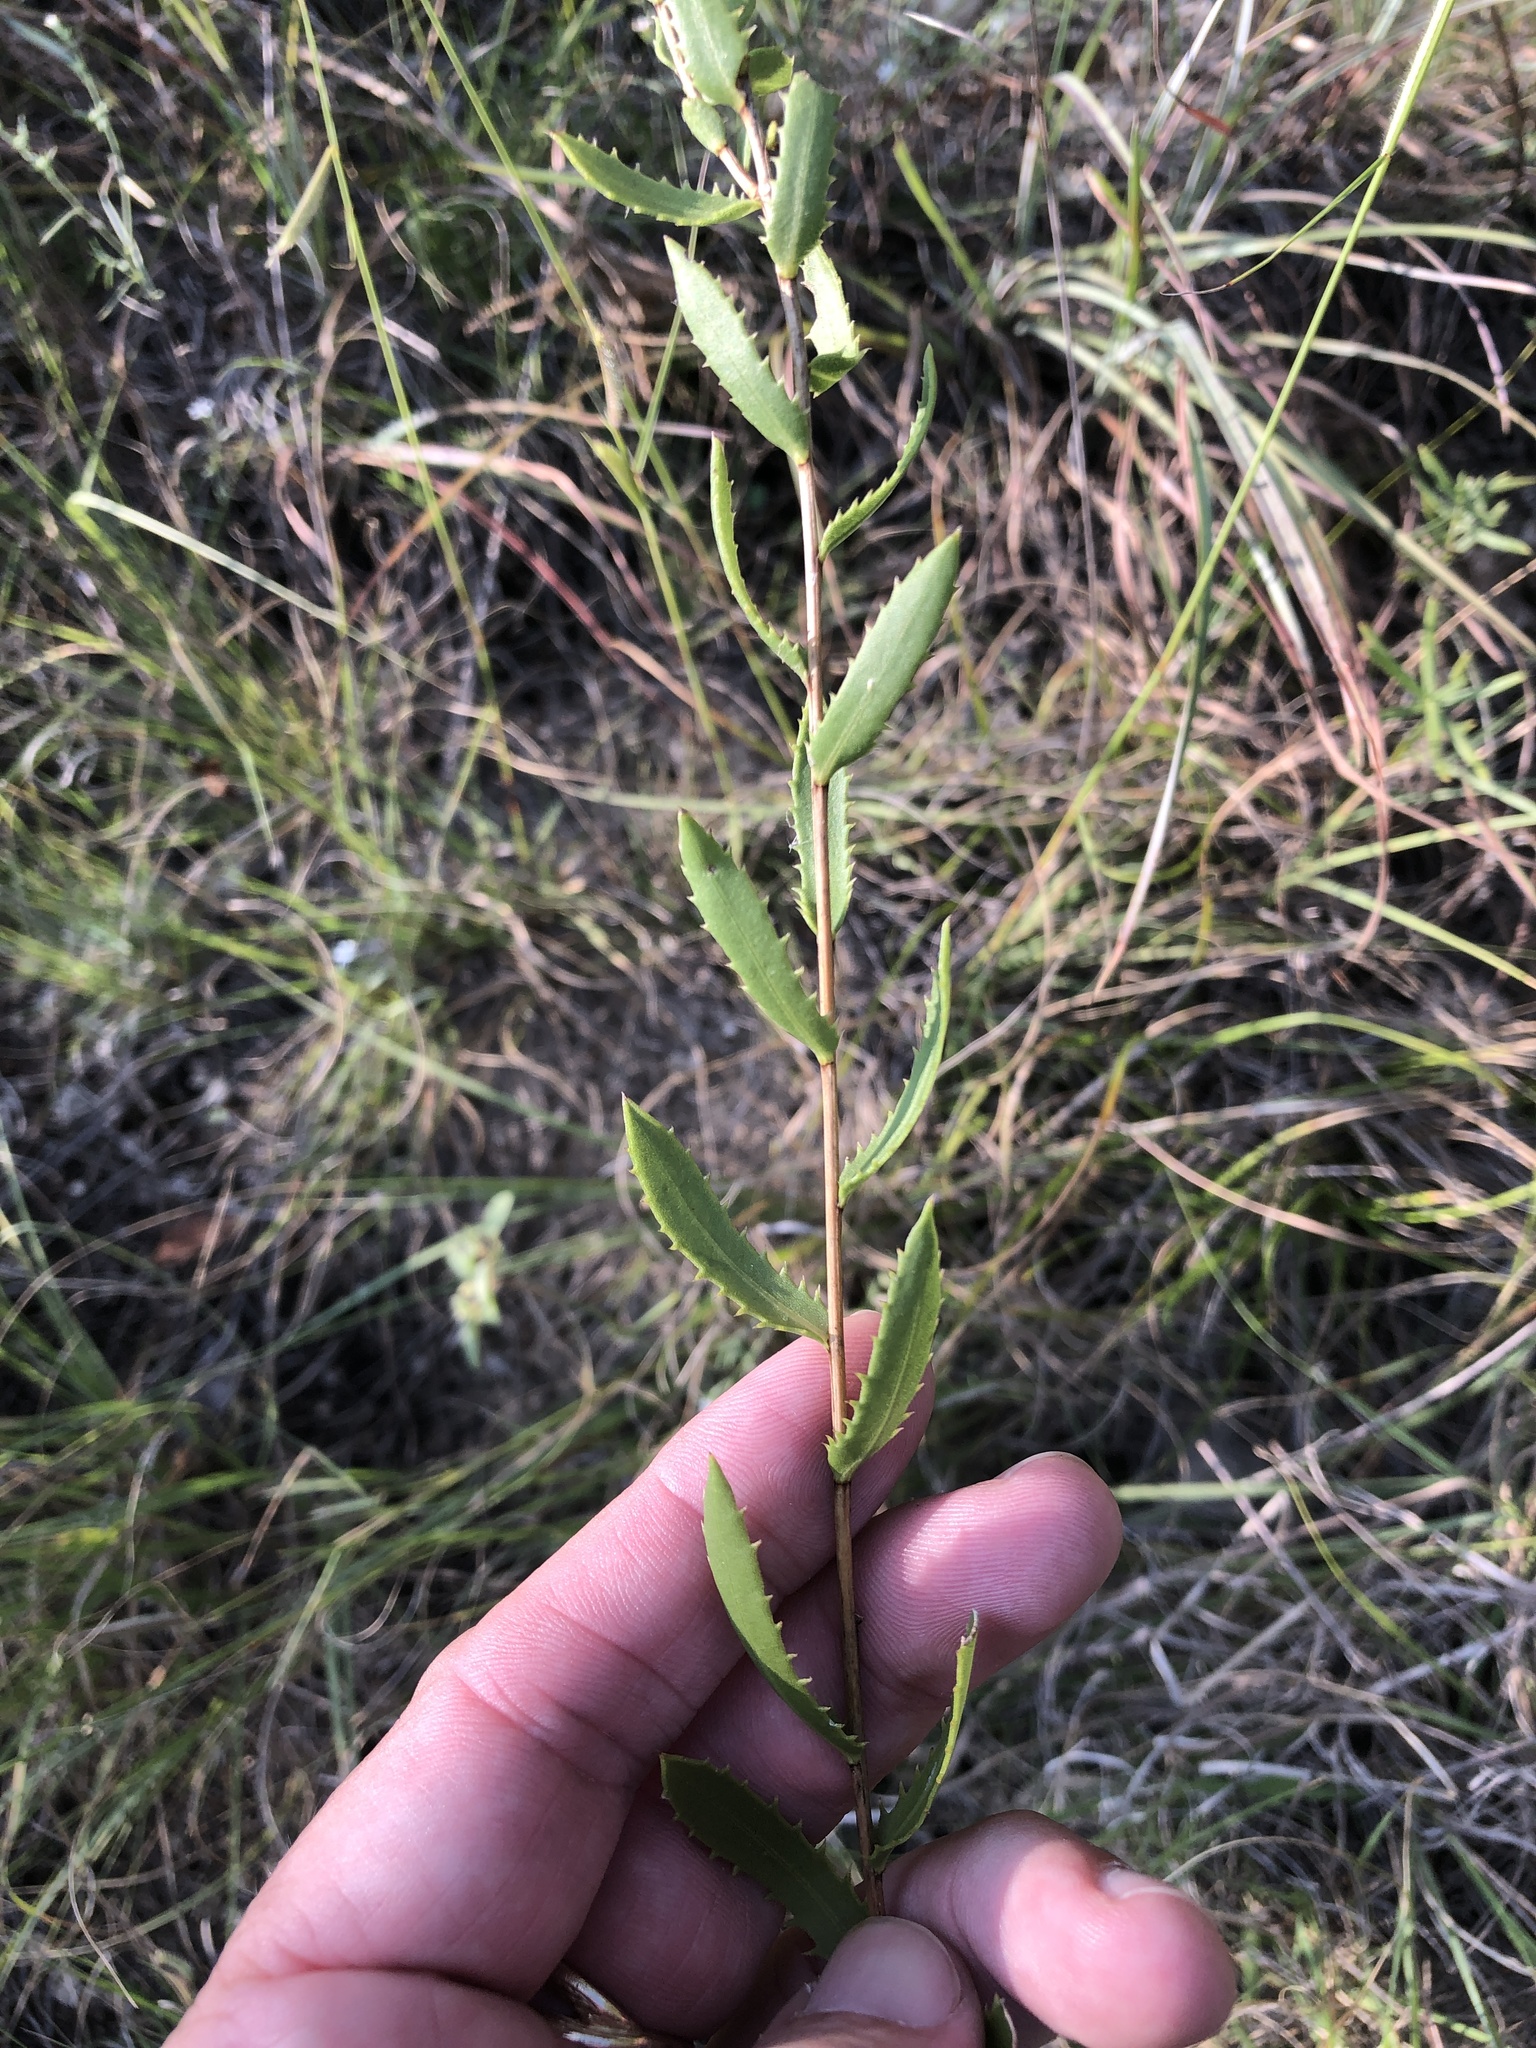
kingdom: Plantae
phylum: Tracheophyta
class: Magnoliopsida
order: Asterales
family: Asteraceae
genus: Grindelia
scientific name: Grindelia lanceolata
